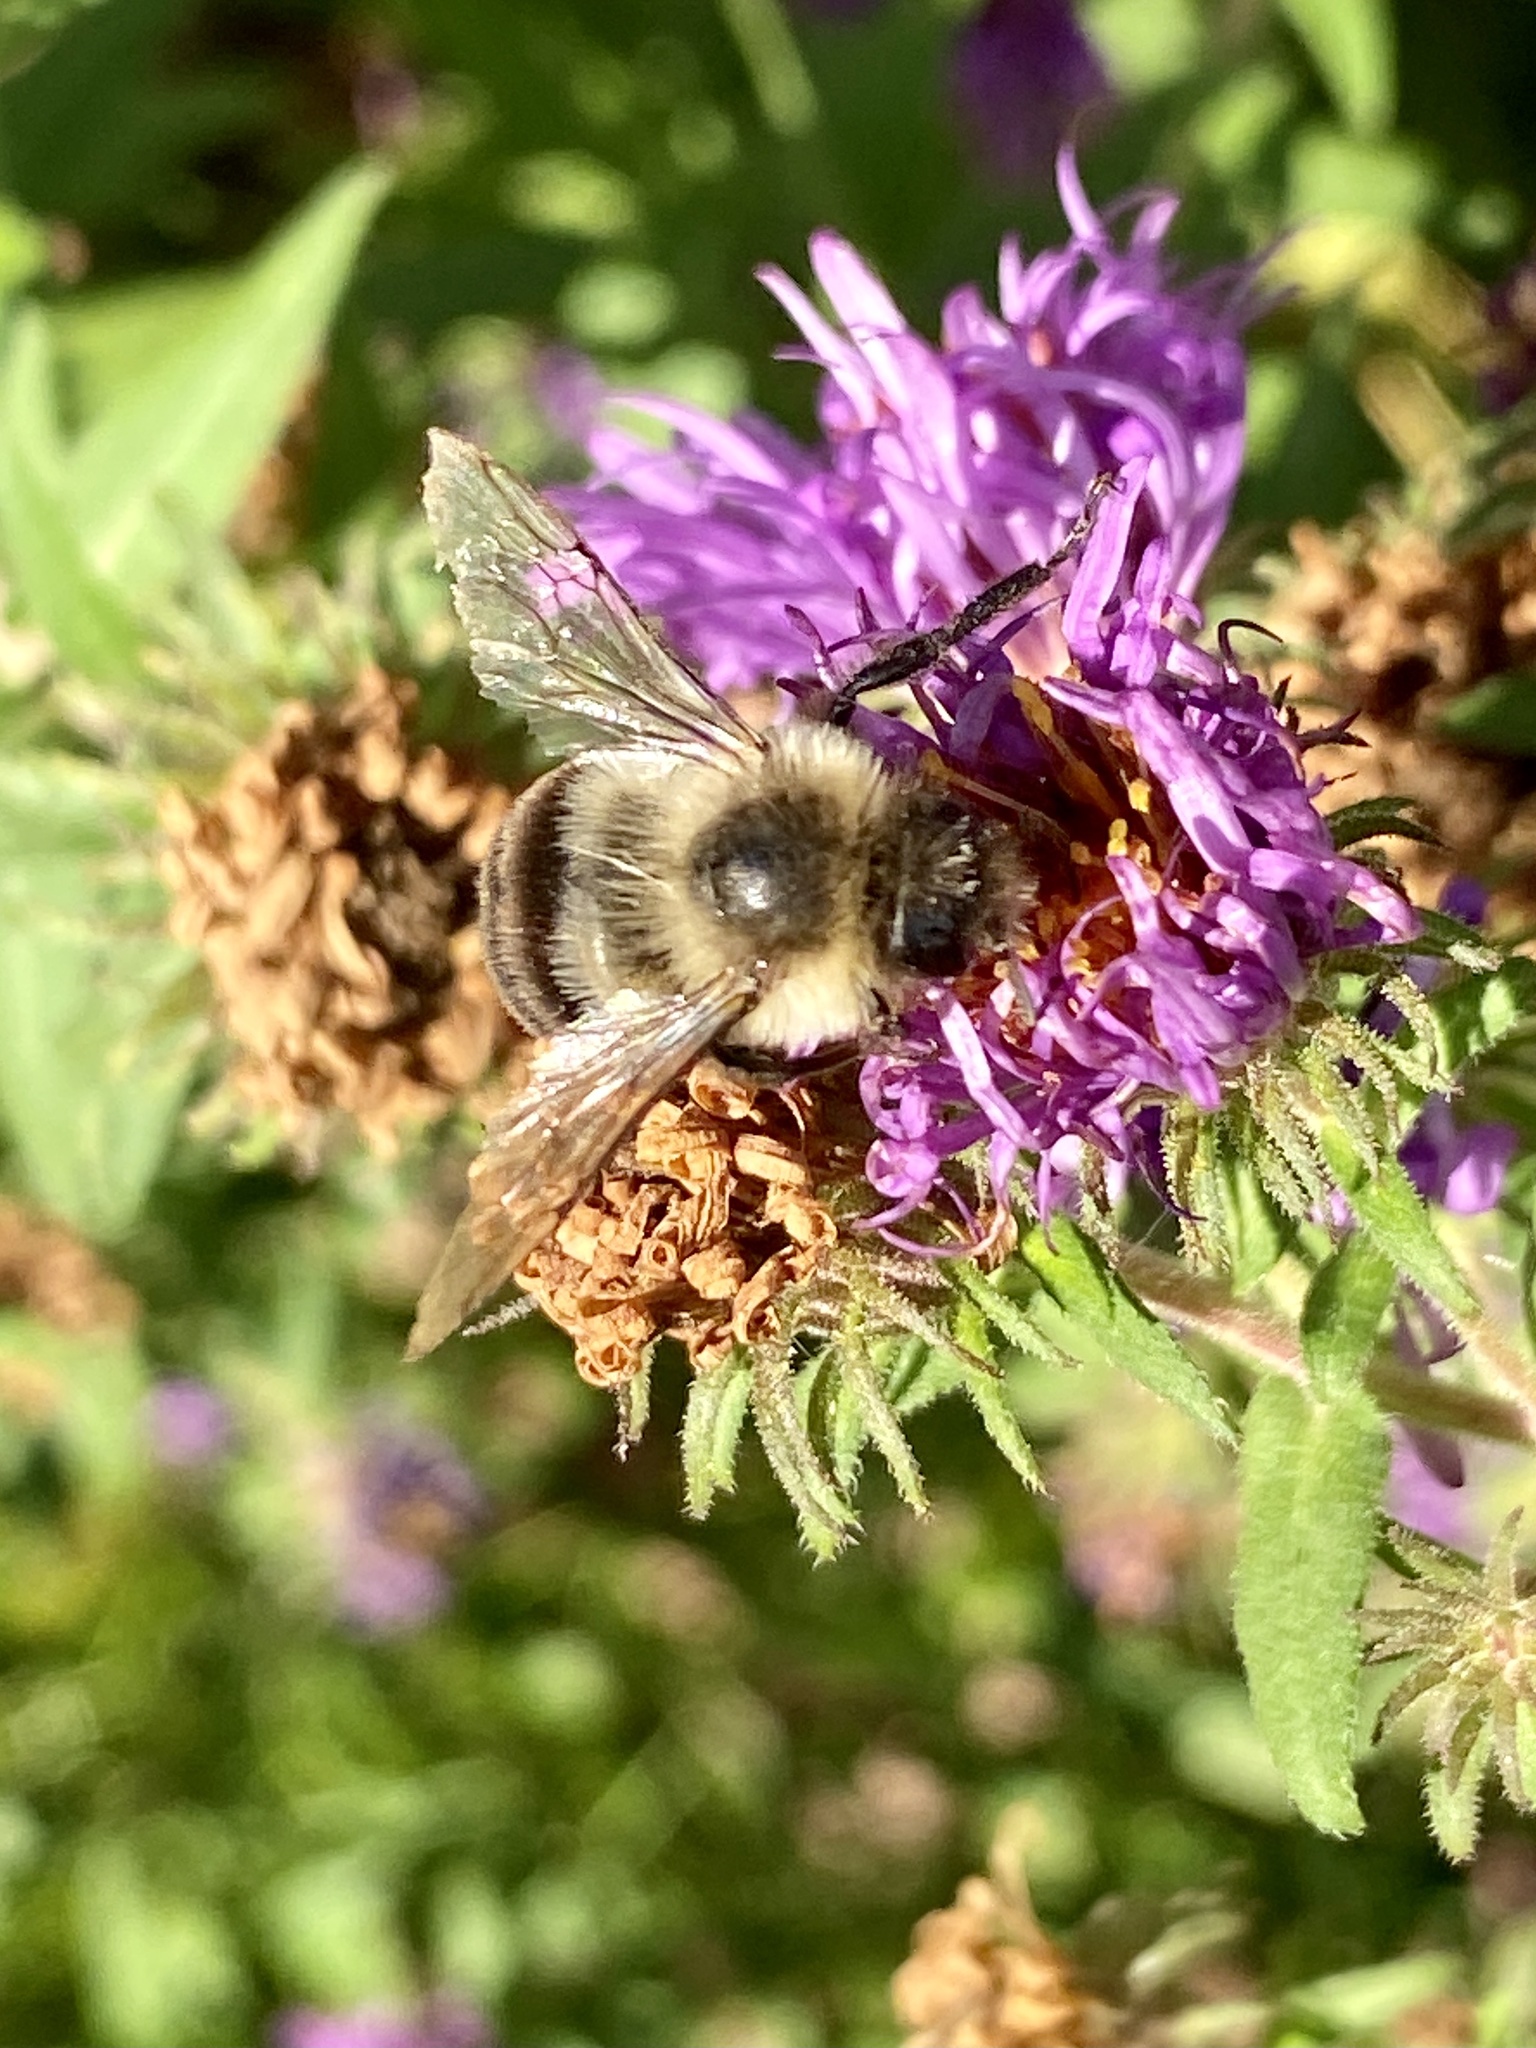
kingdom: Animalia
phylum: Arthropoda
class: Insecta
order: Hymenoptera
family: Apidae
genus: Bombus
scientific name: Bombus impatiens
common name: Common eastern bumble bee
